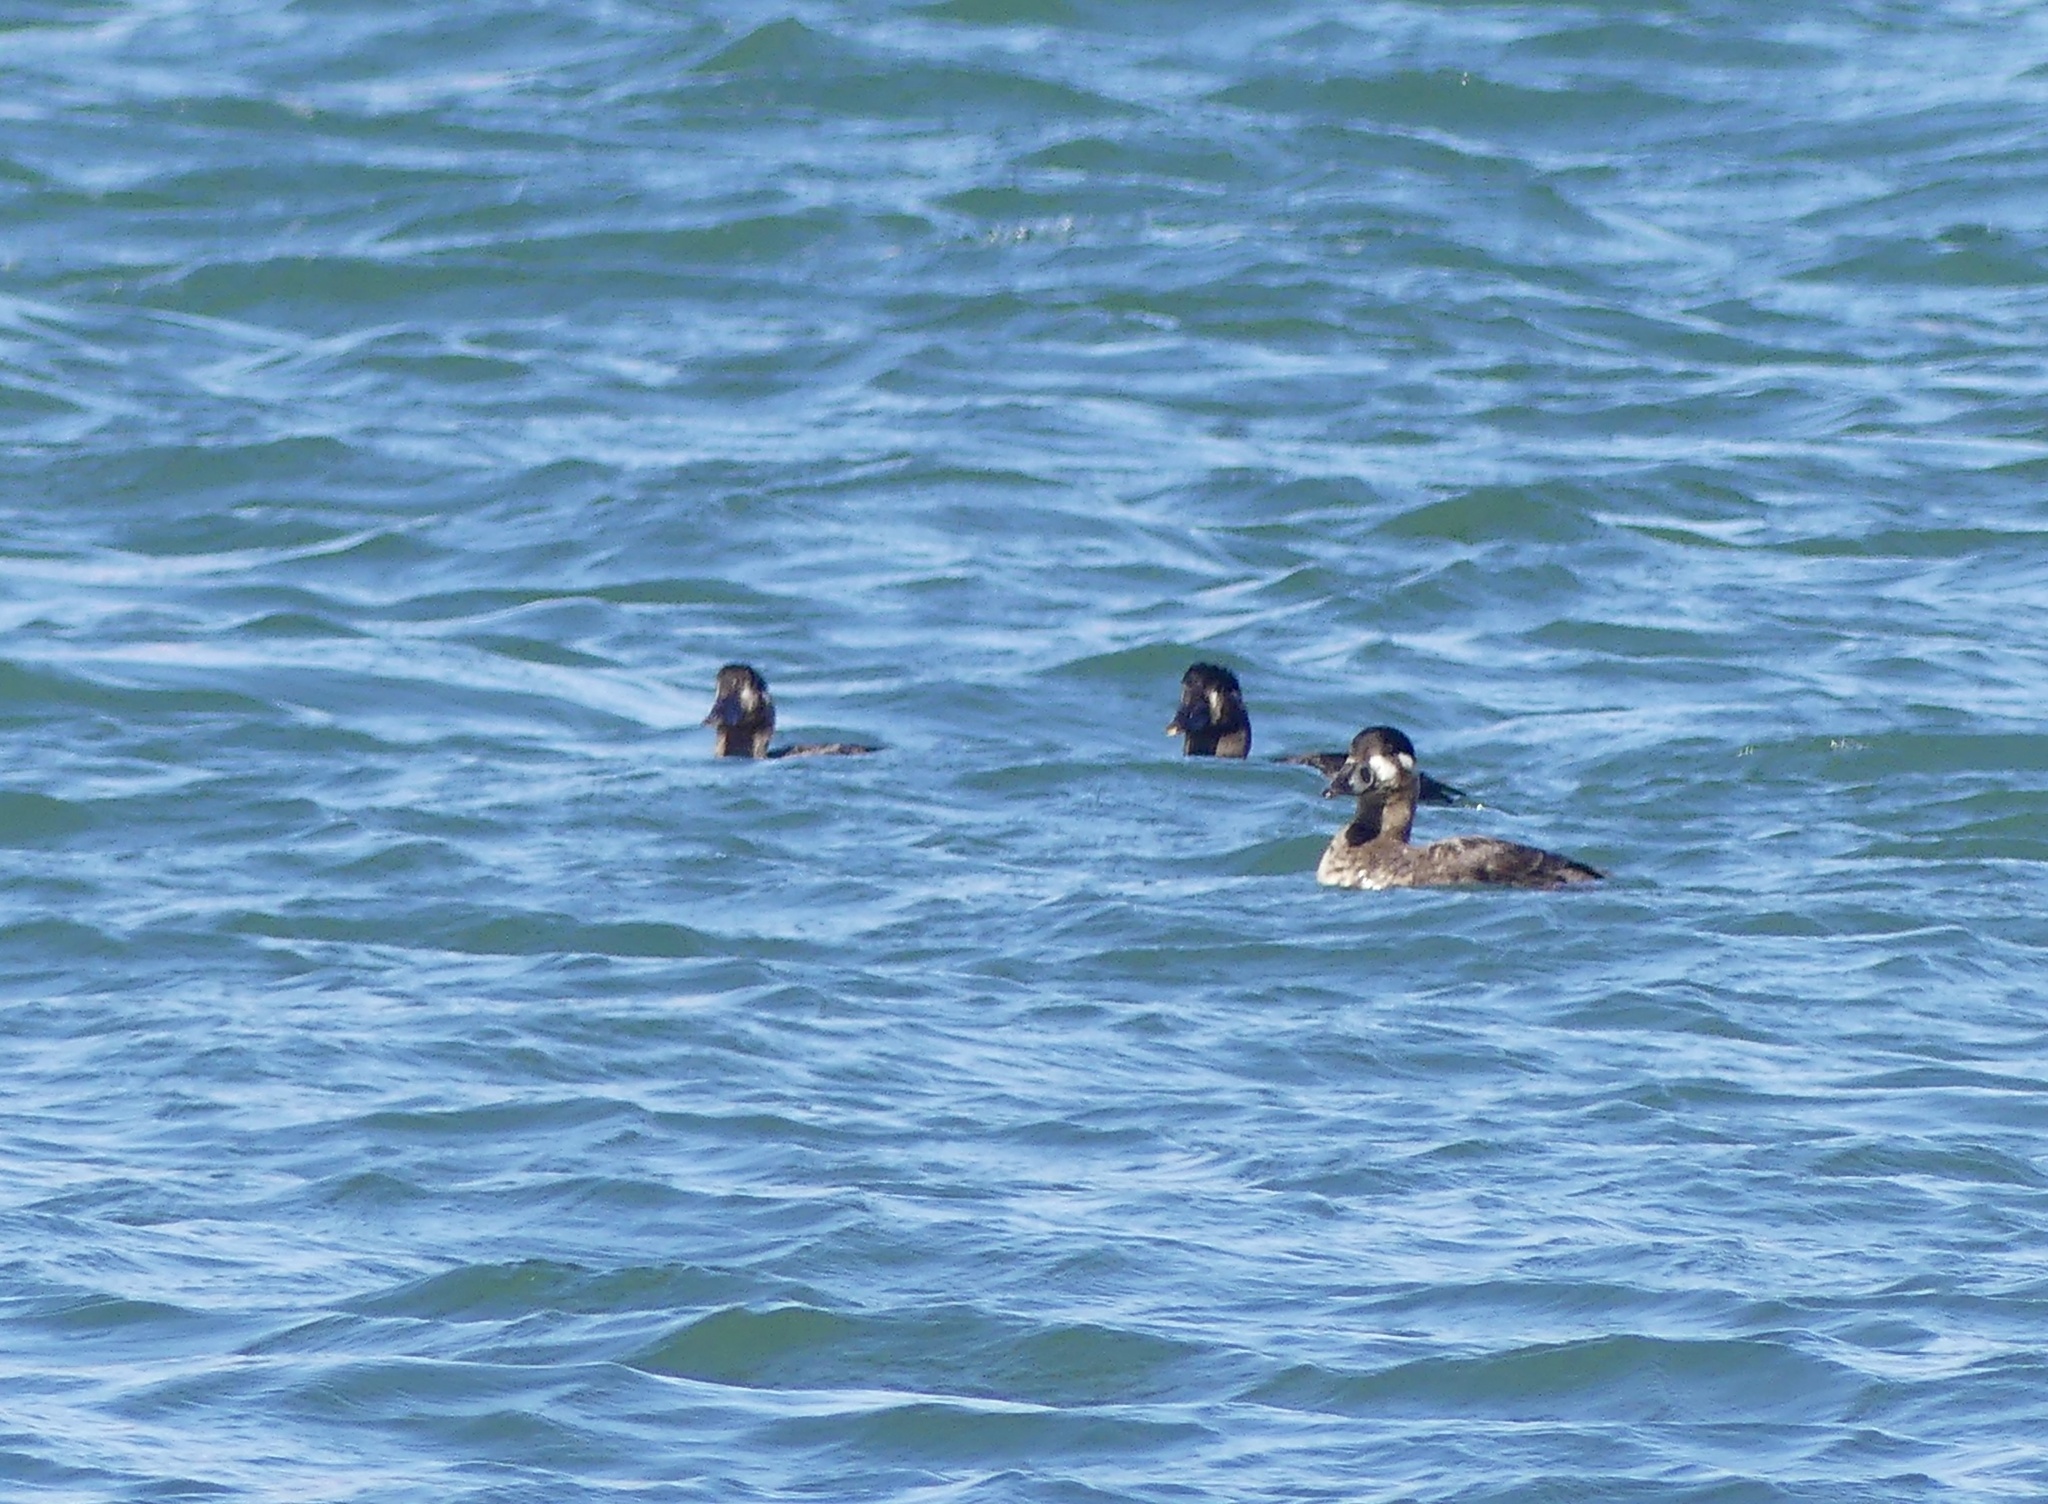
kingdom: Animalia
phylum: Chordata
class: Aves
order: Anseriformes
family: Anatidae
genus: Melanitta
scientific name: Melanitta perspicillata
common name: Surf scoter
